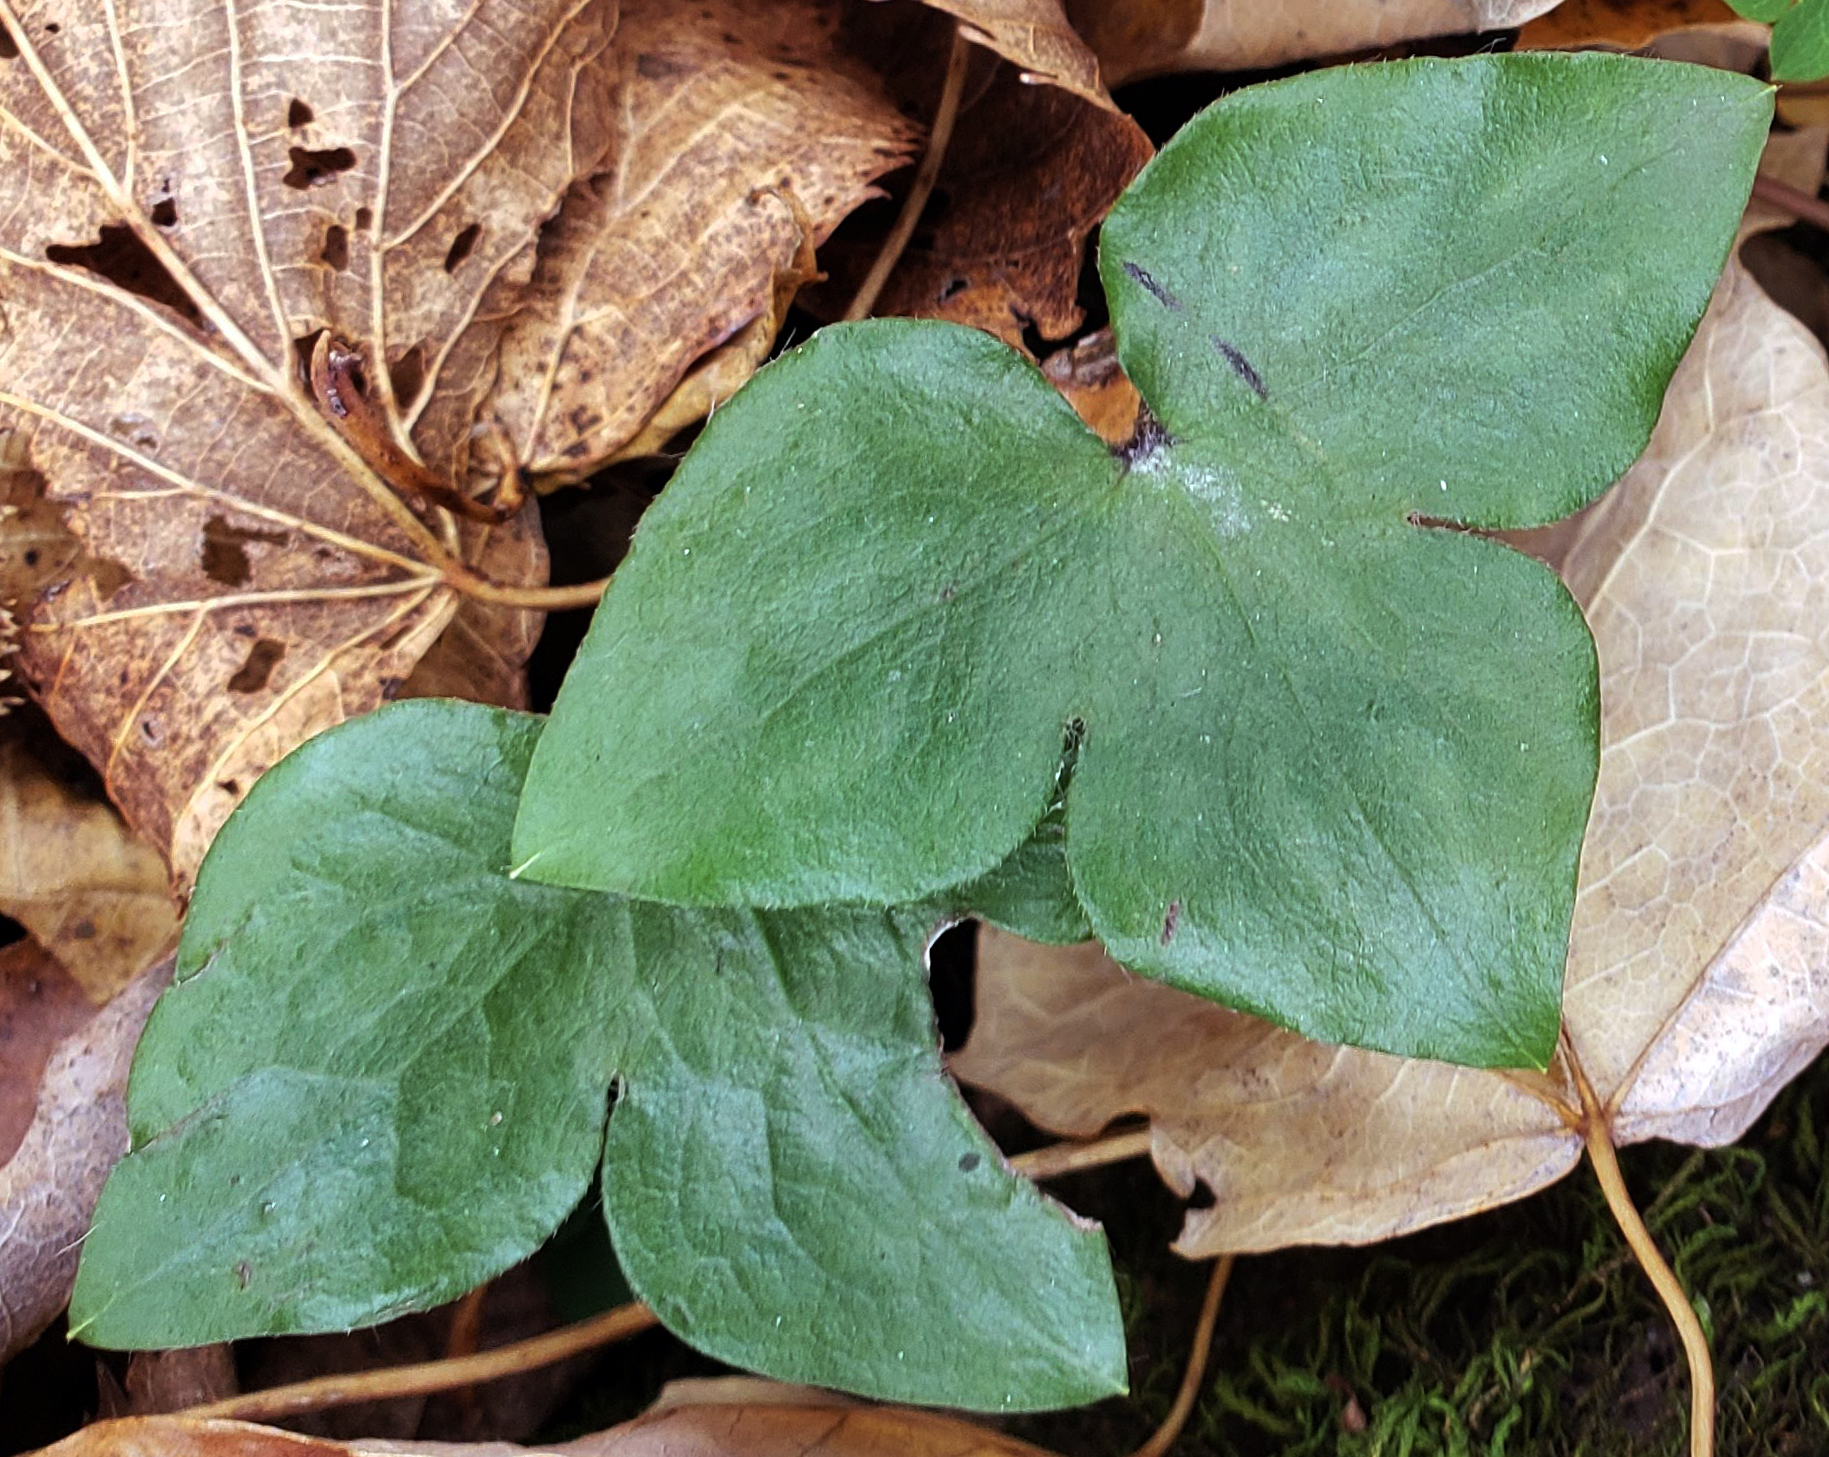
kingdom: Plantae
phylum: Tracheophyta
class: Magnoliopsida
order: Ranunculales
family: Ranunculaceae
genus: Hepatica
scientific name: Hepatica acutiloba
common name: Sharp-lobed hepatica
